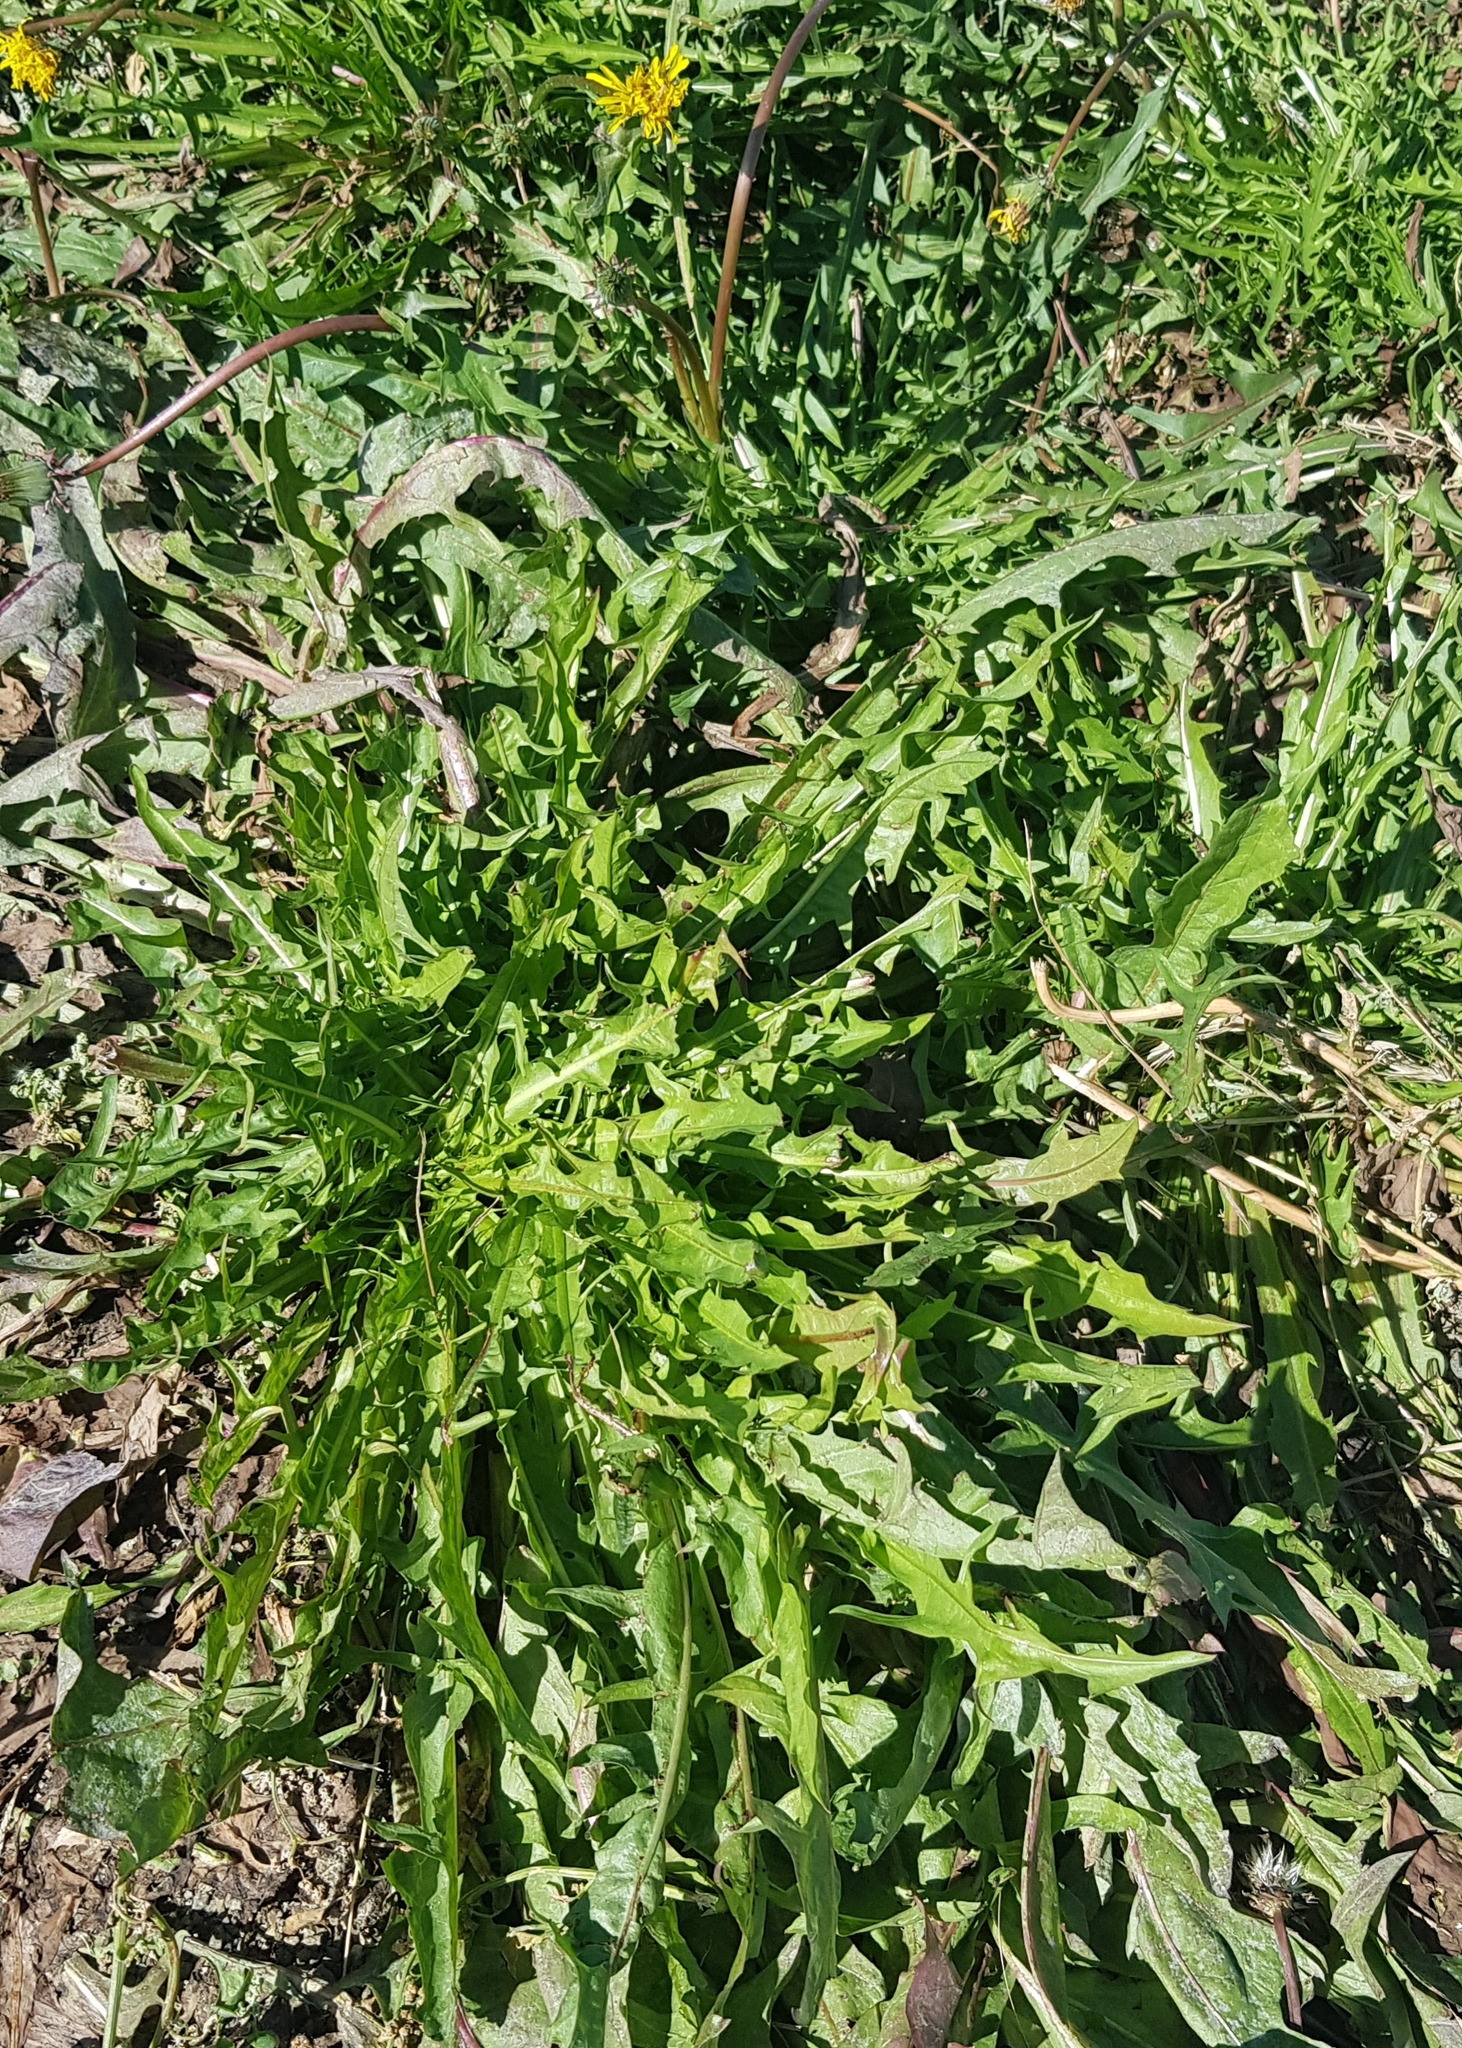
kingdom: Plantae
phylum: Tracheophyta
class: Magnoliopsida
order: Asterales
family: Asteraceae
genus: Taraxacum
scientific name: Taraxacum officinale
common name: Common dandelion
